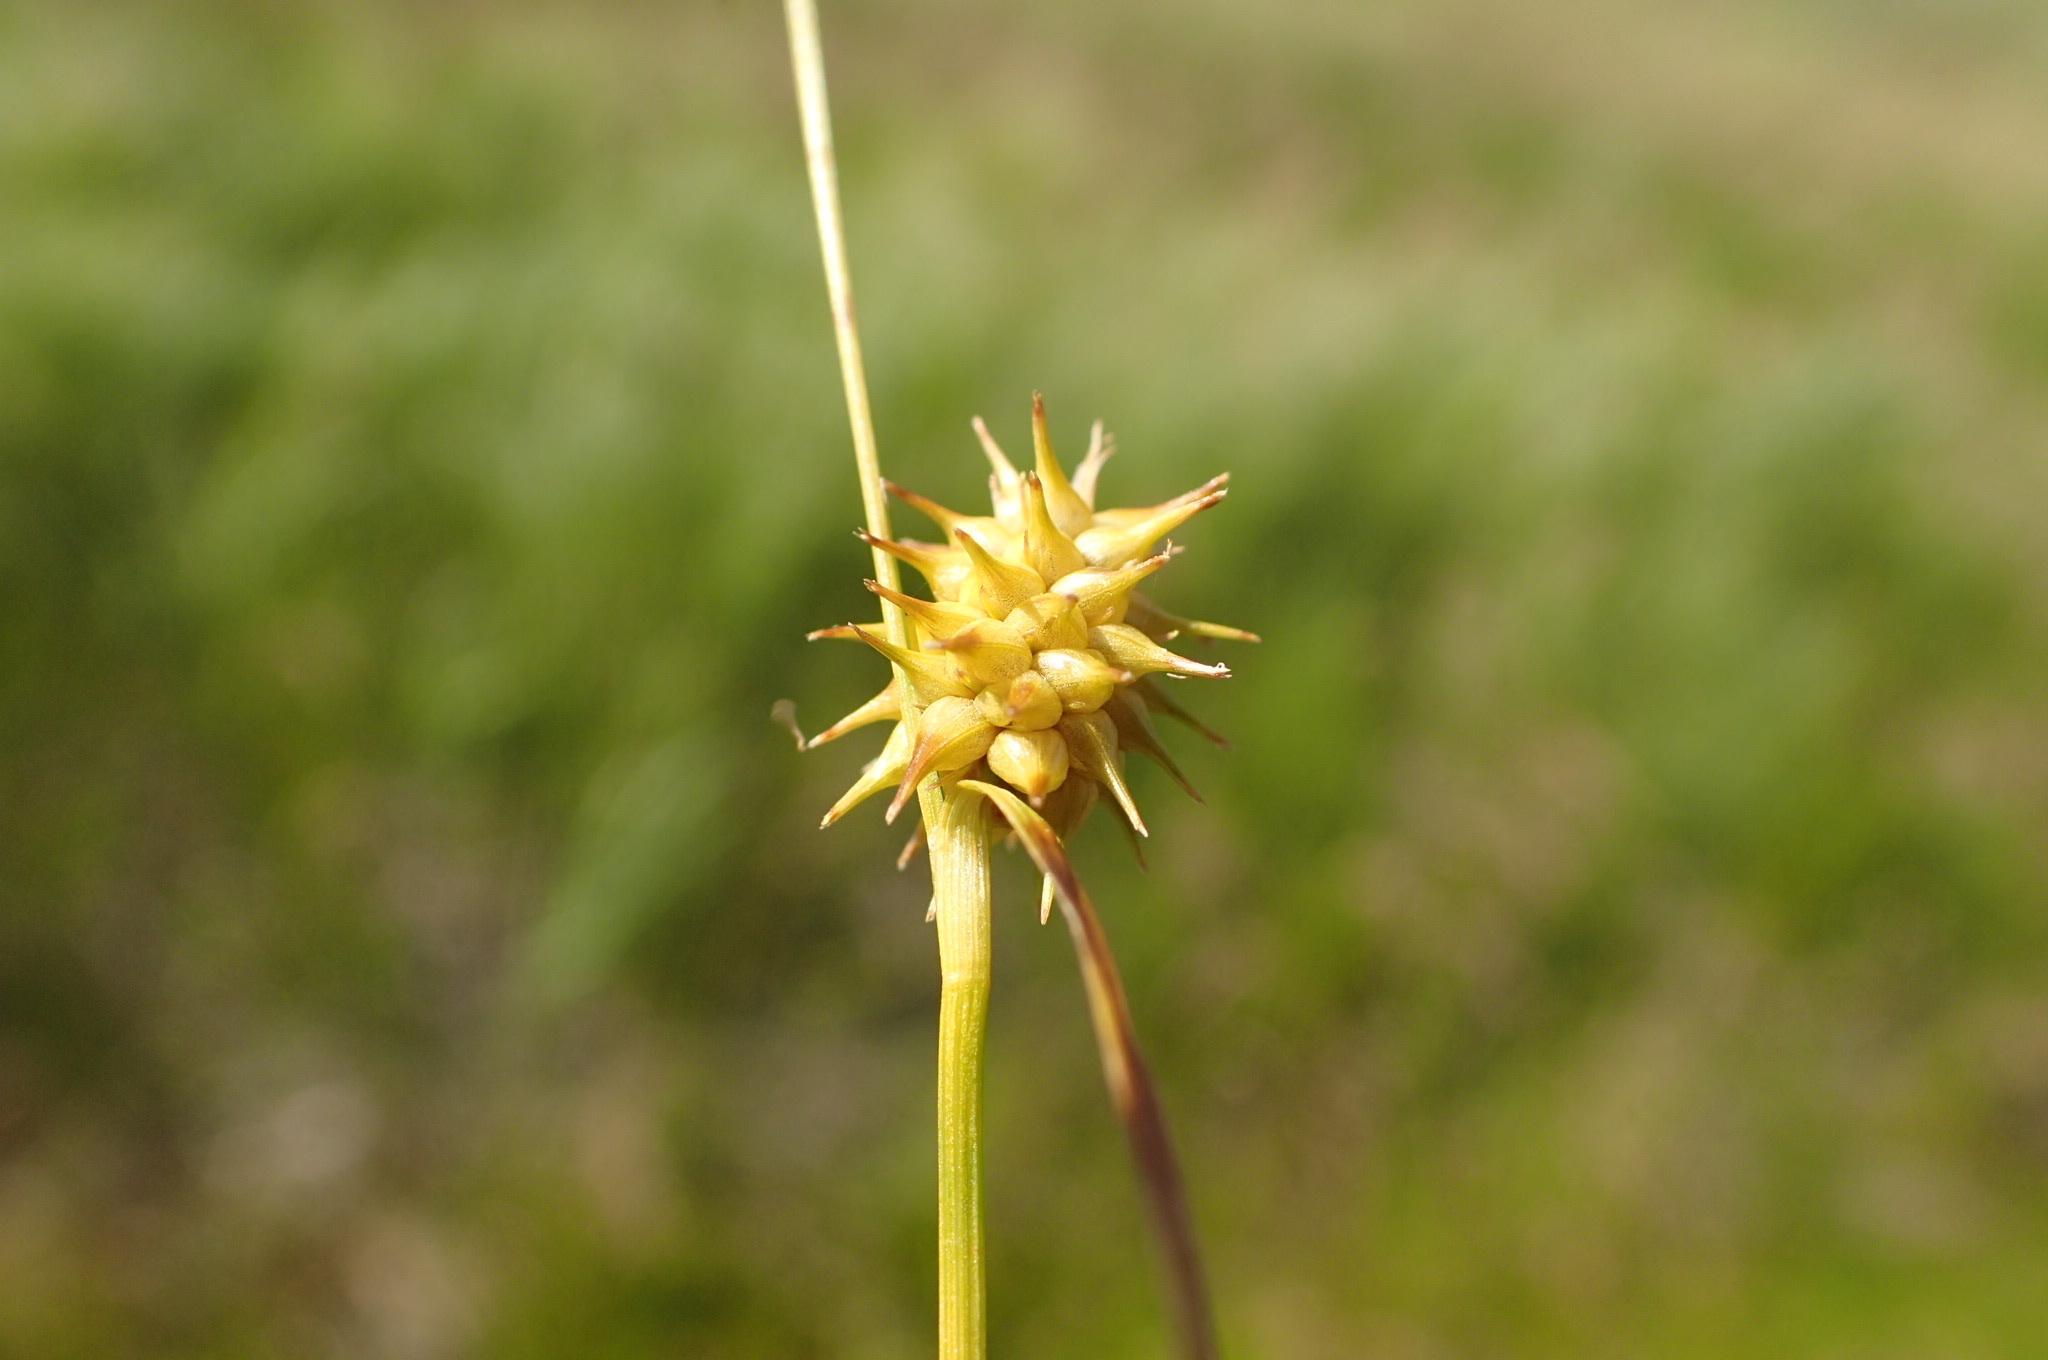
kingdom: Plantae
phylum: Tracheophyta
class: Liliopsida
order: Poales
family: Cyperaceae
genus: Carex
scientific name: Carex cryptolepis
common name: Northeastern sedge
